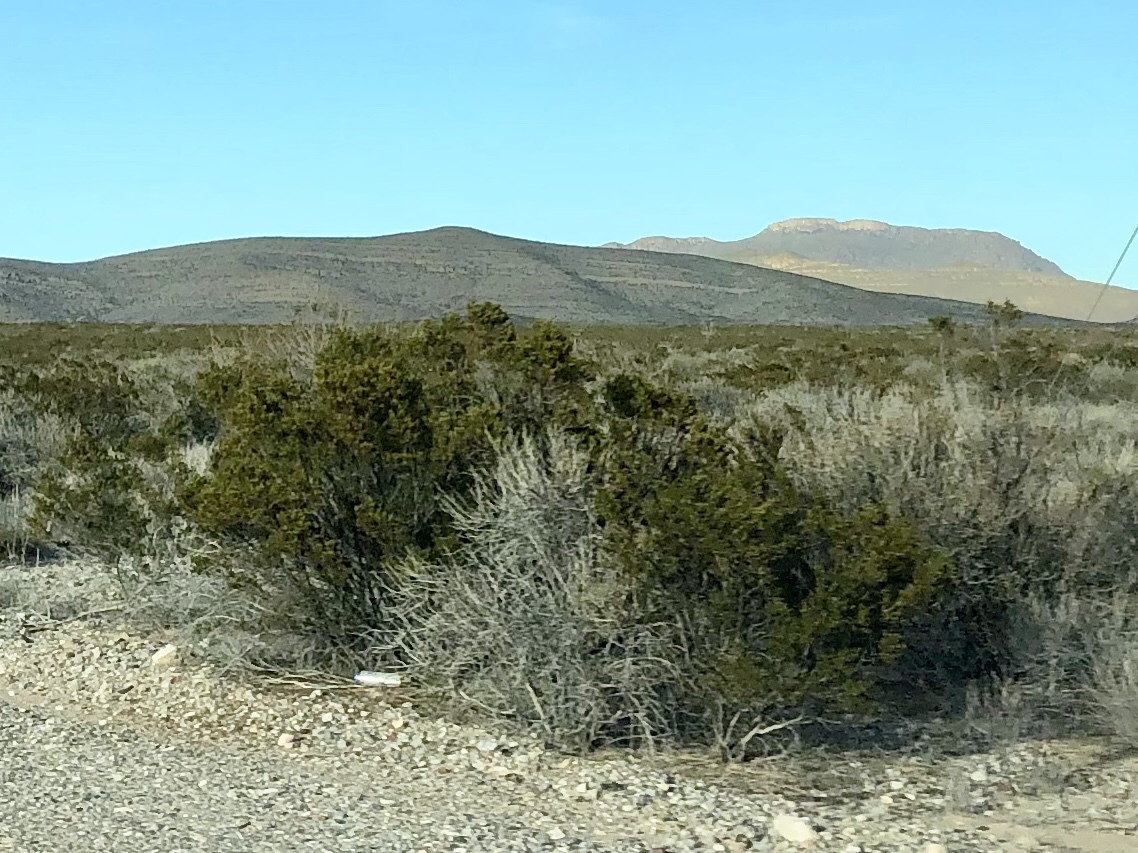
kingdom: Plantae
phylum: Tracheophyta
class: Magnoliopsida
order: Zygophyllales
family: Zygophyllaceae
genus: Larrea
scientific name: Larrea tridentata
